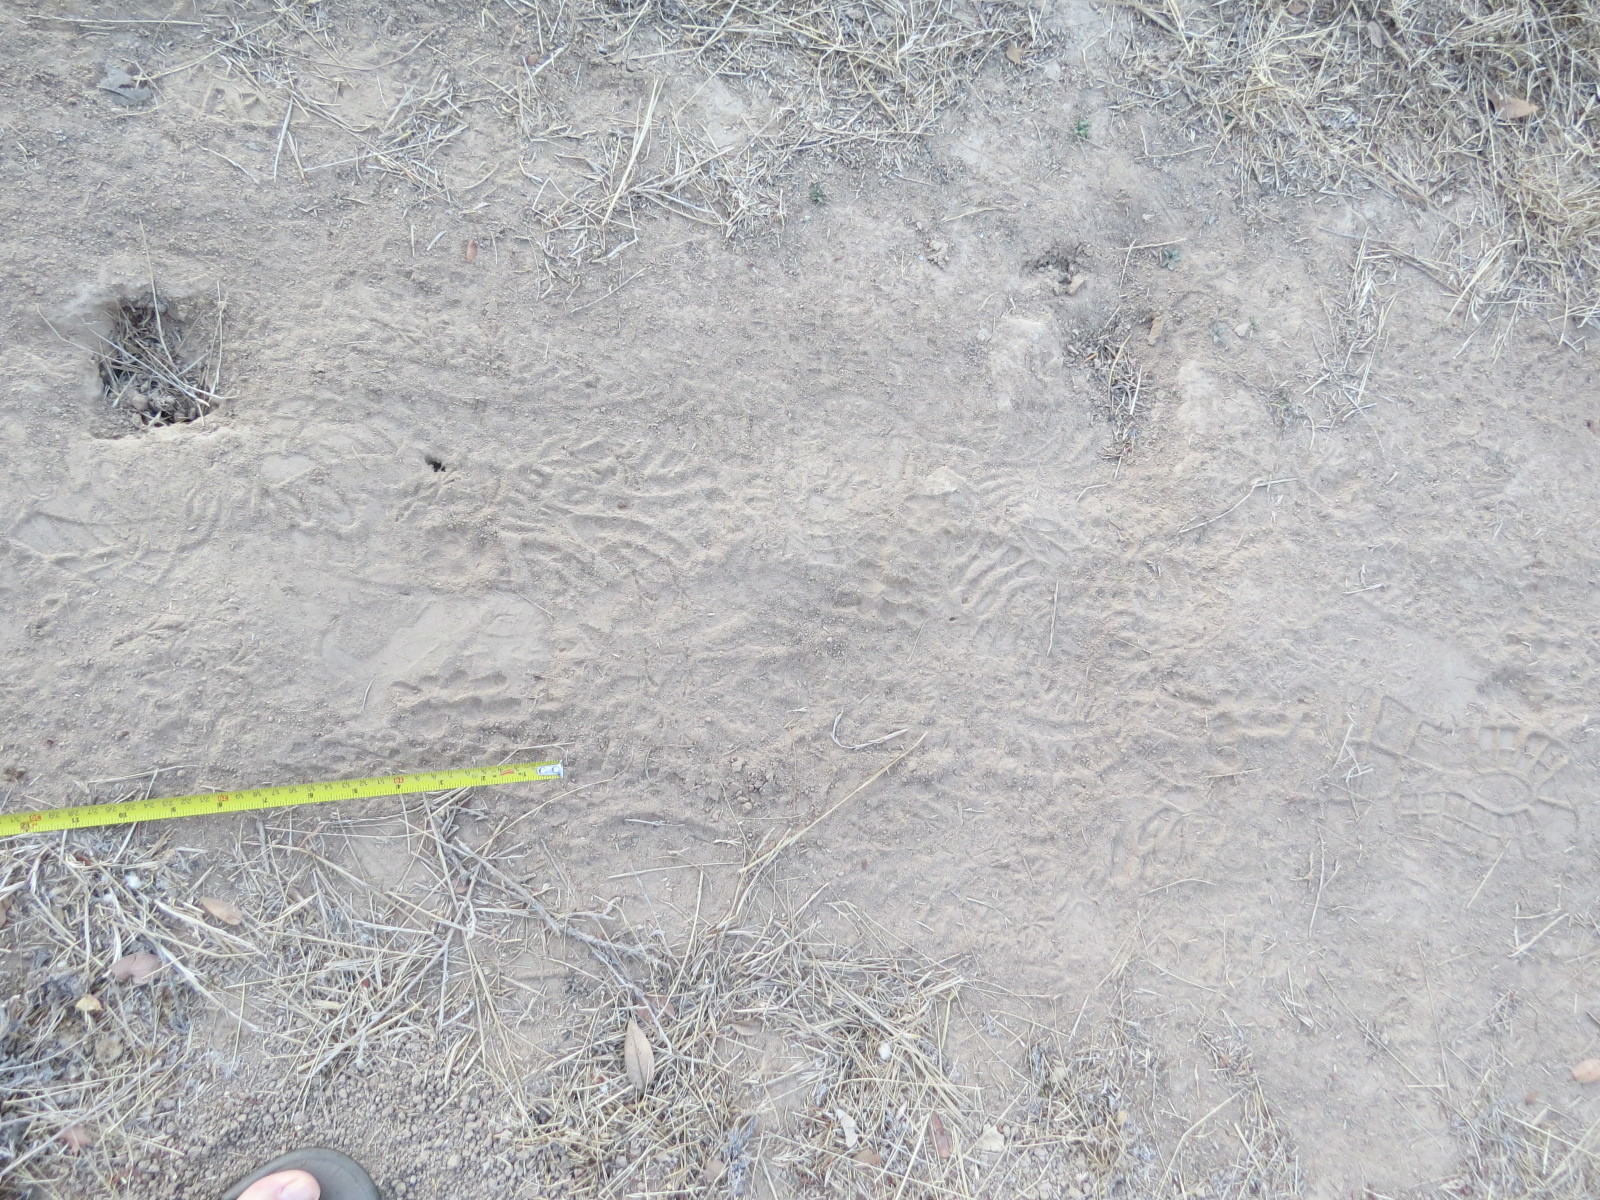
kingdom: Animalia
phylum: Chordata
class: Aves
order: Strigiformes
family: Strigidae
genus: Bubo
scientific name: Bubo virginianus
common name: Great horned owl
